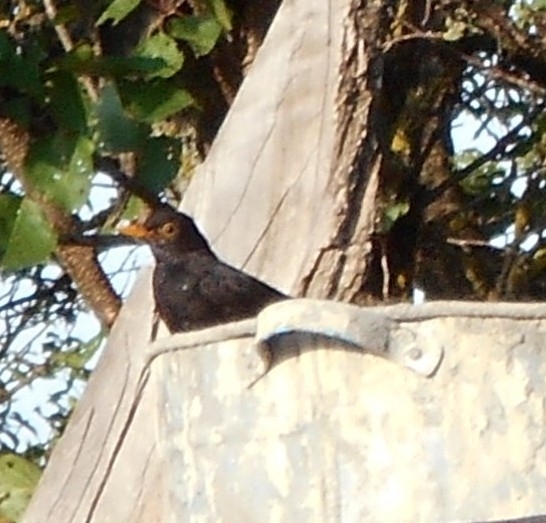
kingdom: Animalia
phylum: Chordata
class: Aves
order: Passeriformes
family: Turdidae
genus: Turdus
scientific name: Turdus merula
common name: Common blackbird
